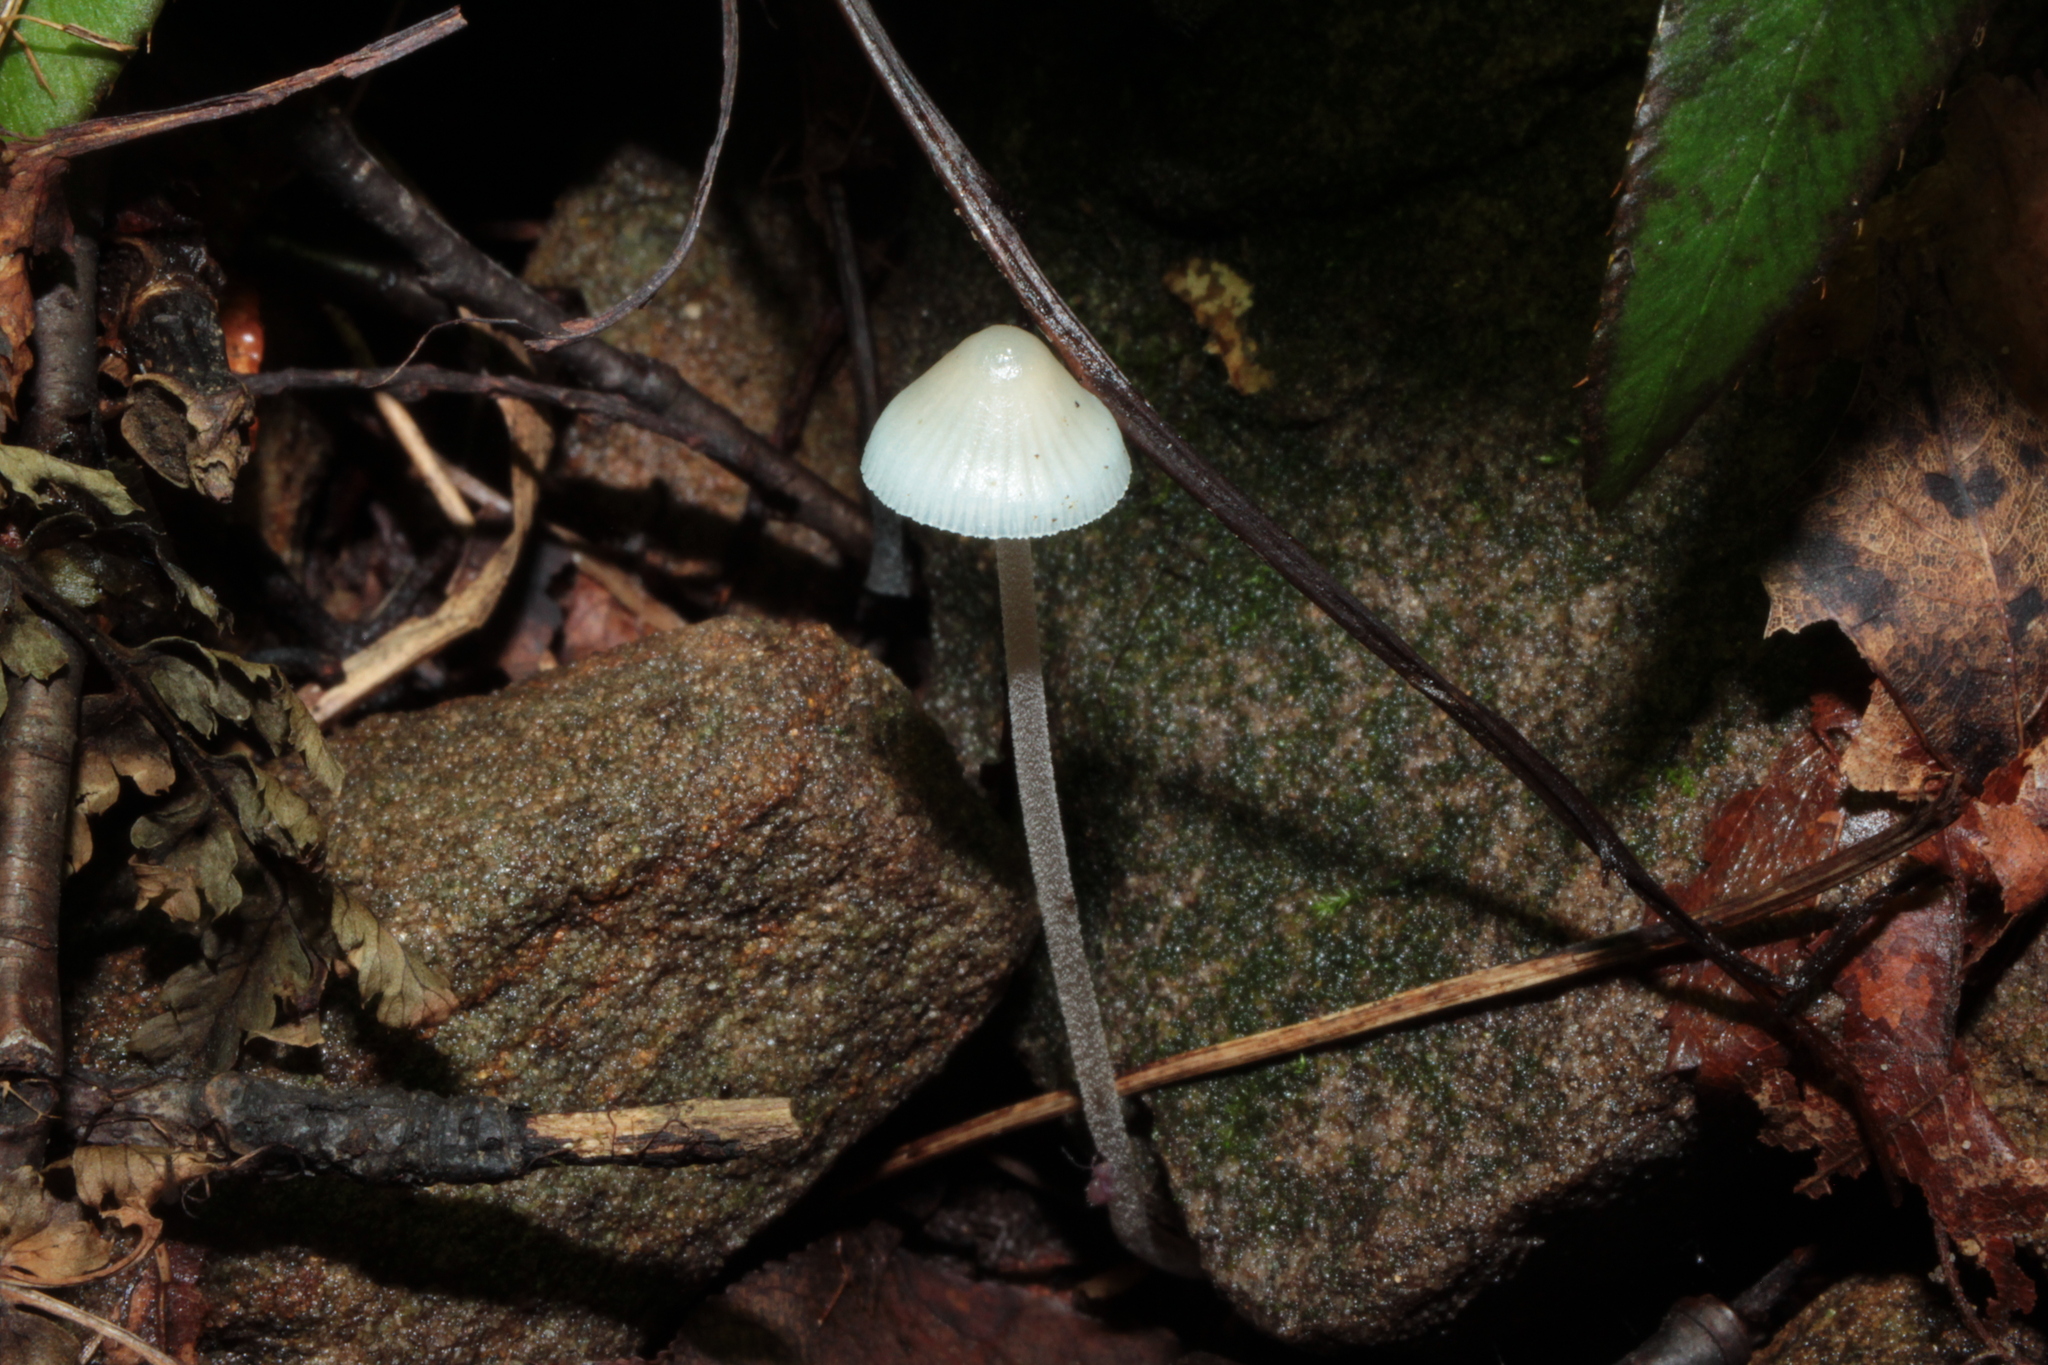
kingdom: Fungi
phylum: Basidiomycota
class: Agaricomycetes
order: Agaricales
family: Mycenaceae
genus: Mycena
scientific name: Mycena subcaerulea
